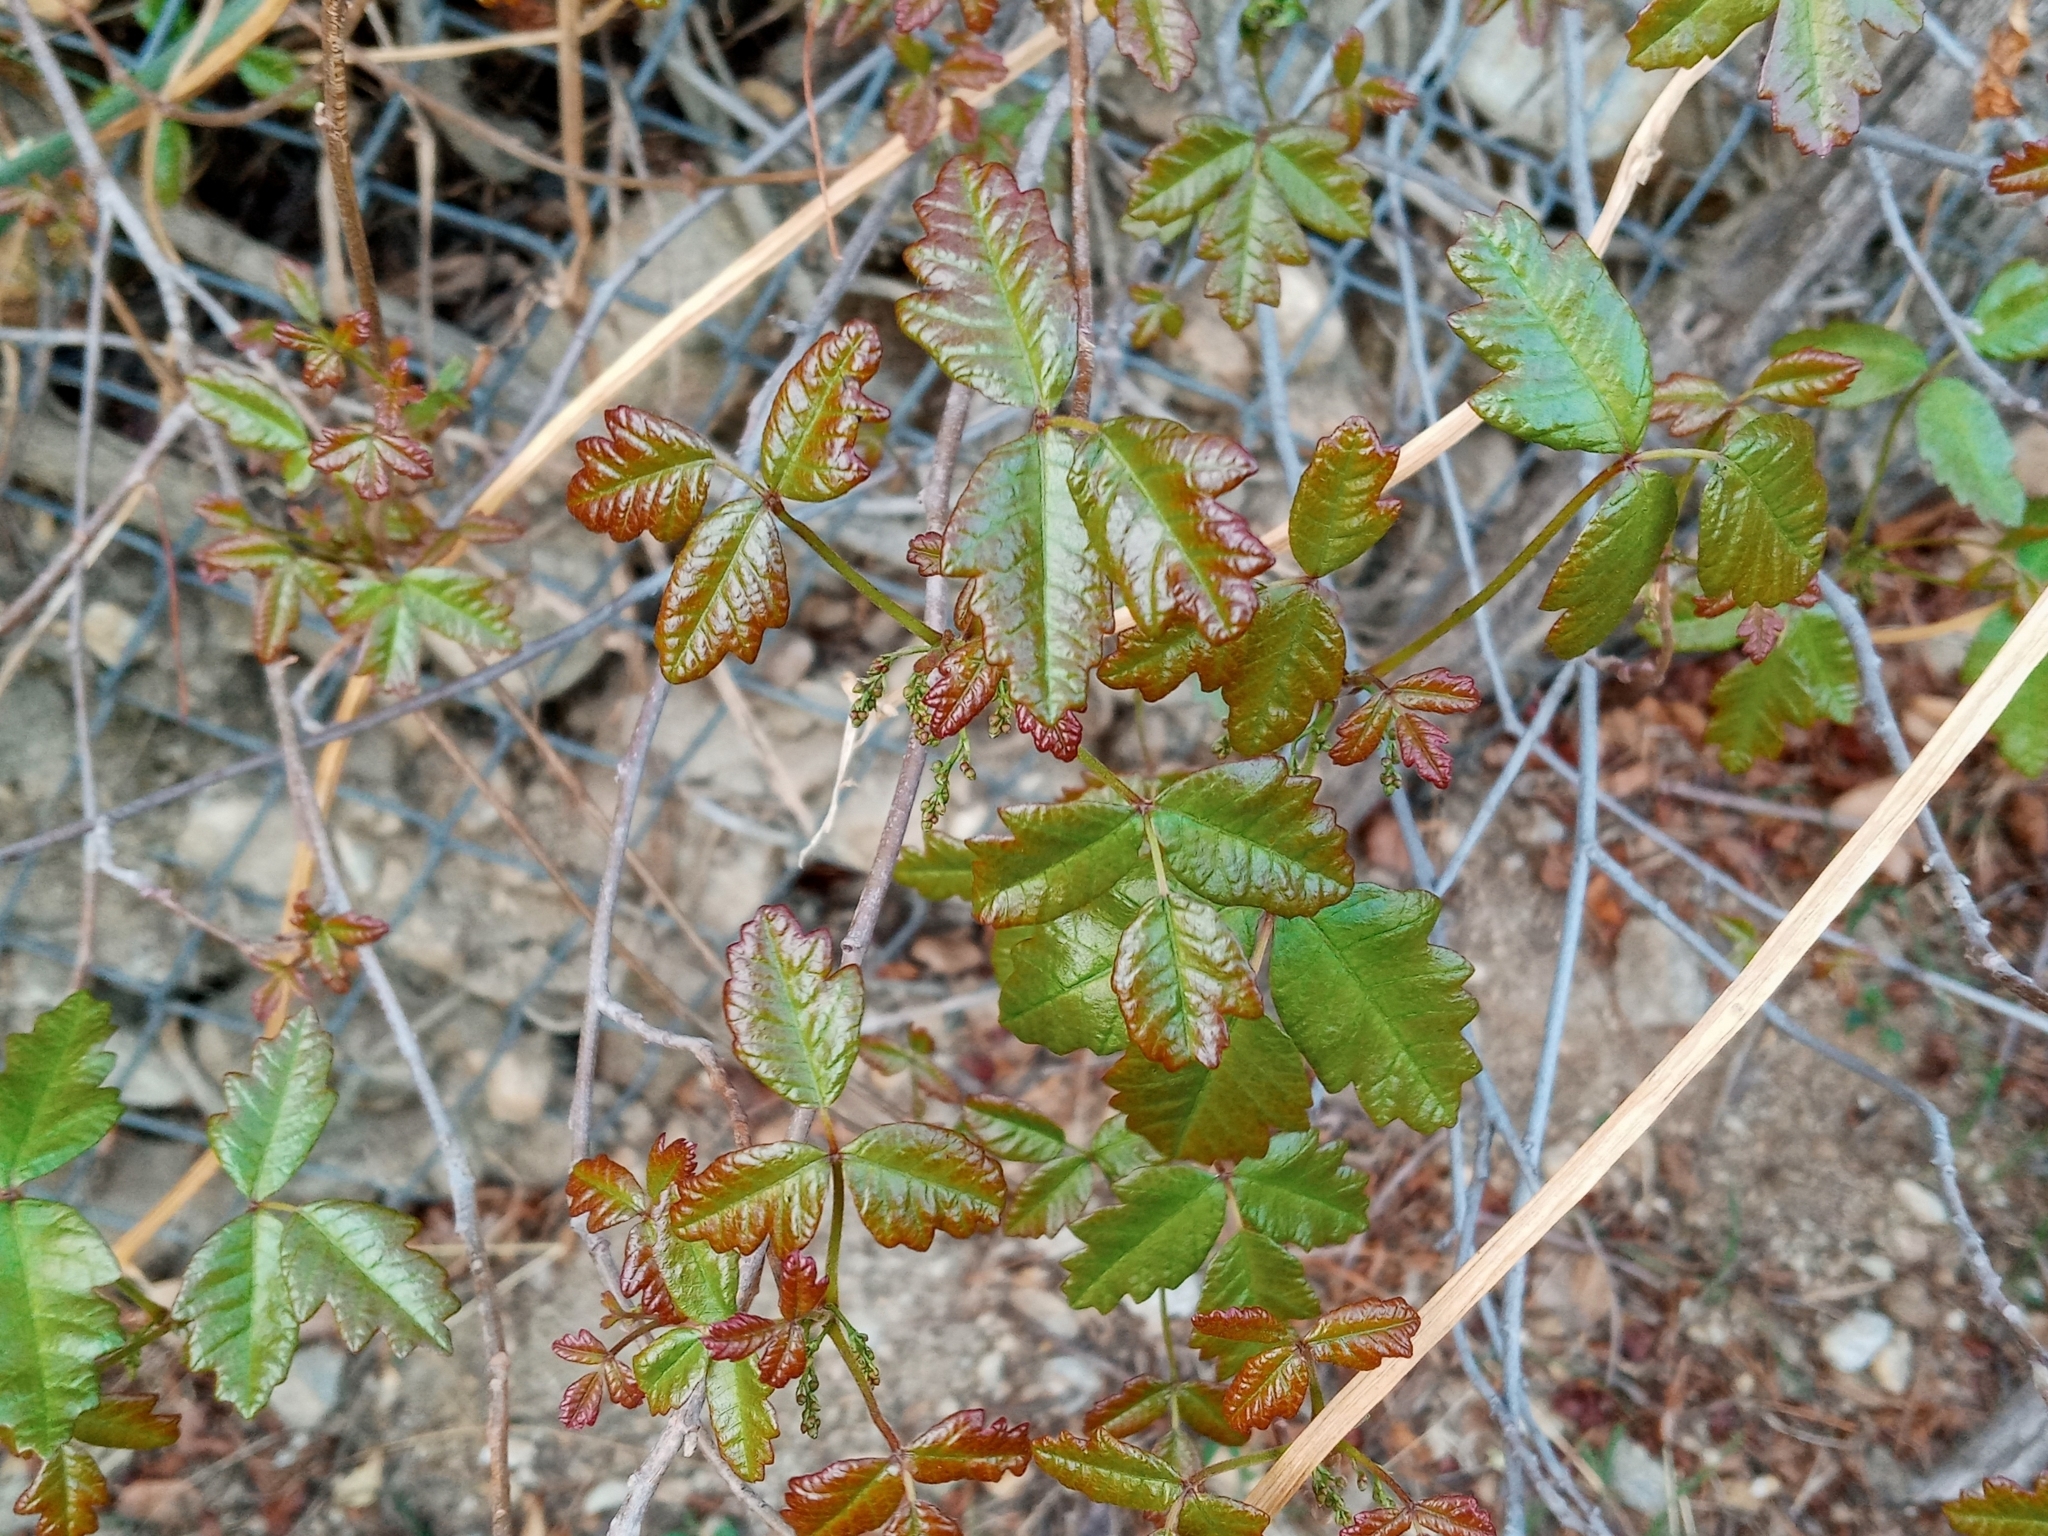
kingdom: Plantae
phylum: Tracheophyta
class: Magnoliopsida
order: Sapindales
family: Anacardiaceae
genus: Toxicodendron
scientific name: Toxicodendron diversilobum
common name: Pacific poison-oak
